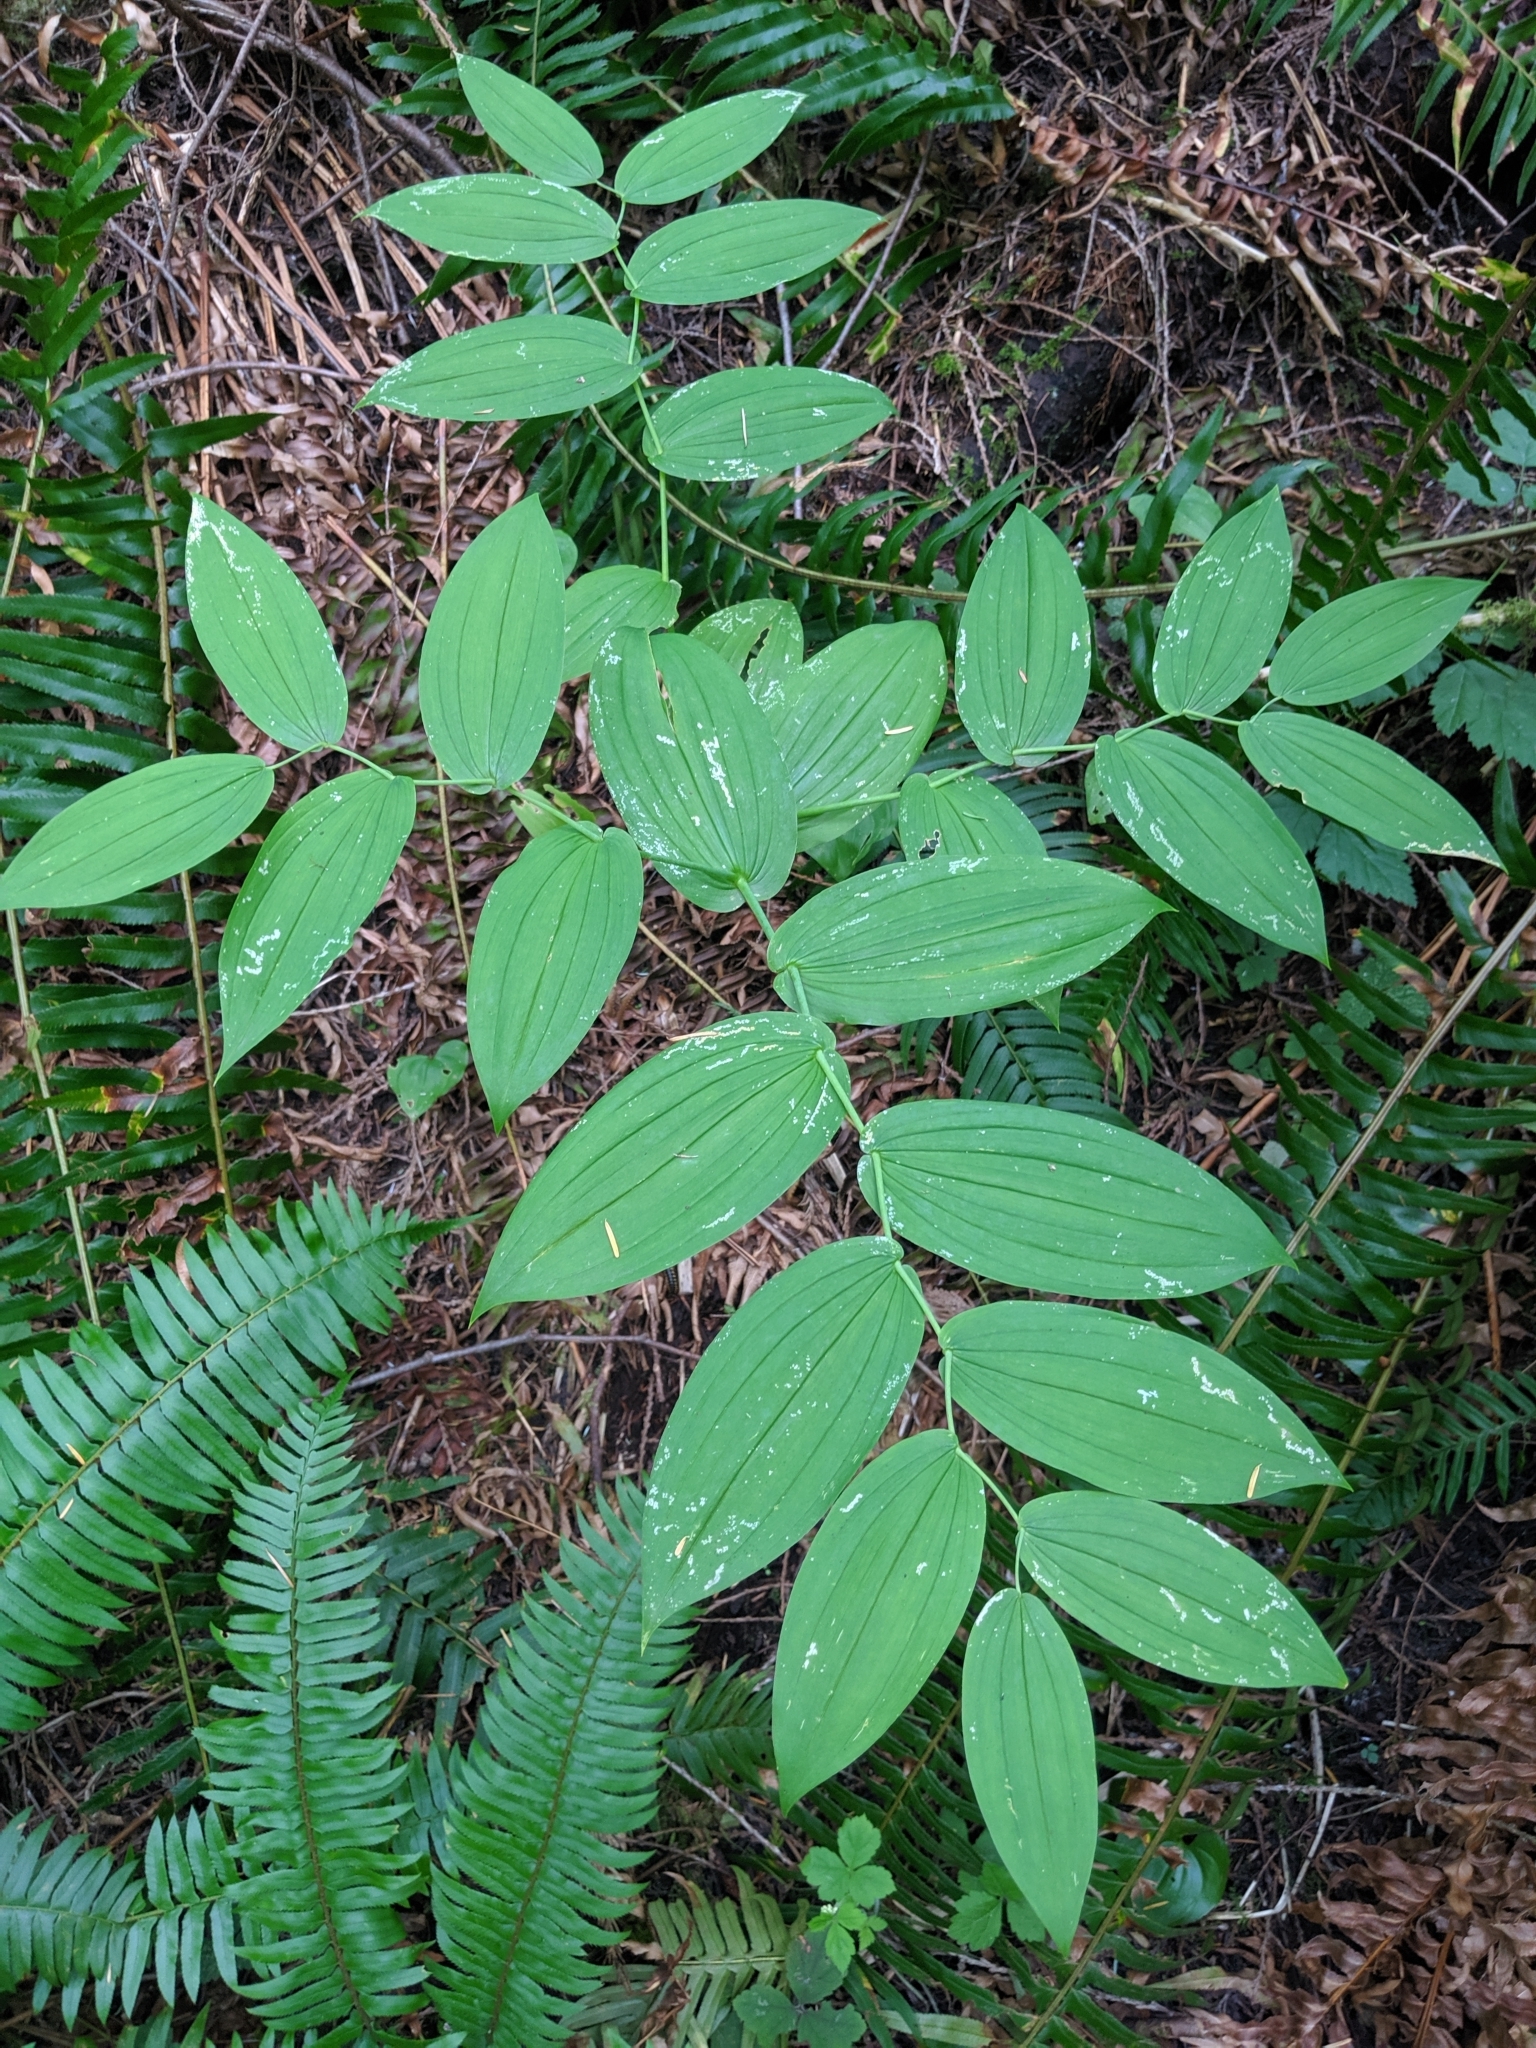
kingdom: Plantae
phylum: Tracheophyta
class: Liliopsida
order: Liliales
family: Liliaceae
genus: Streptopus
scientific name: Streptopus amplexifolius
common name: Clasp twisted stalk
